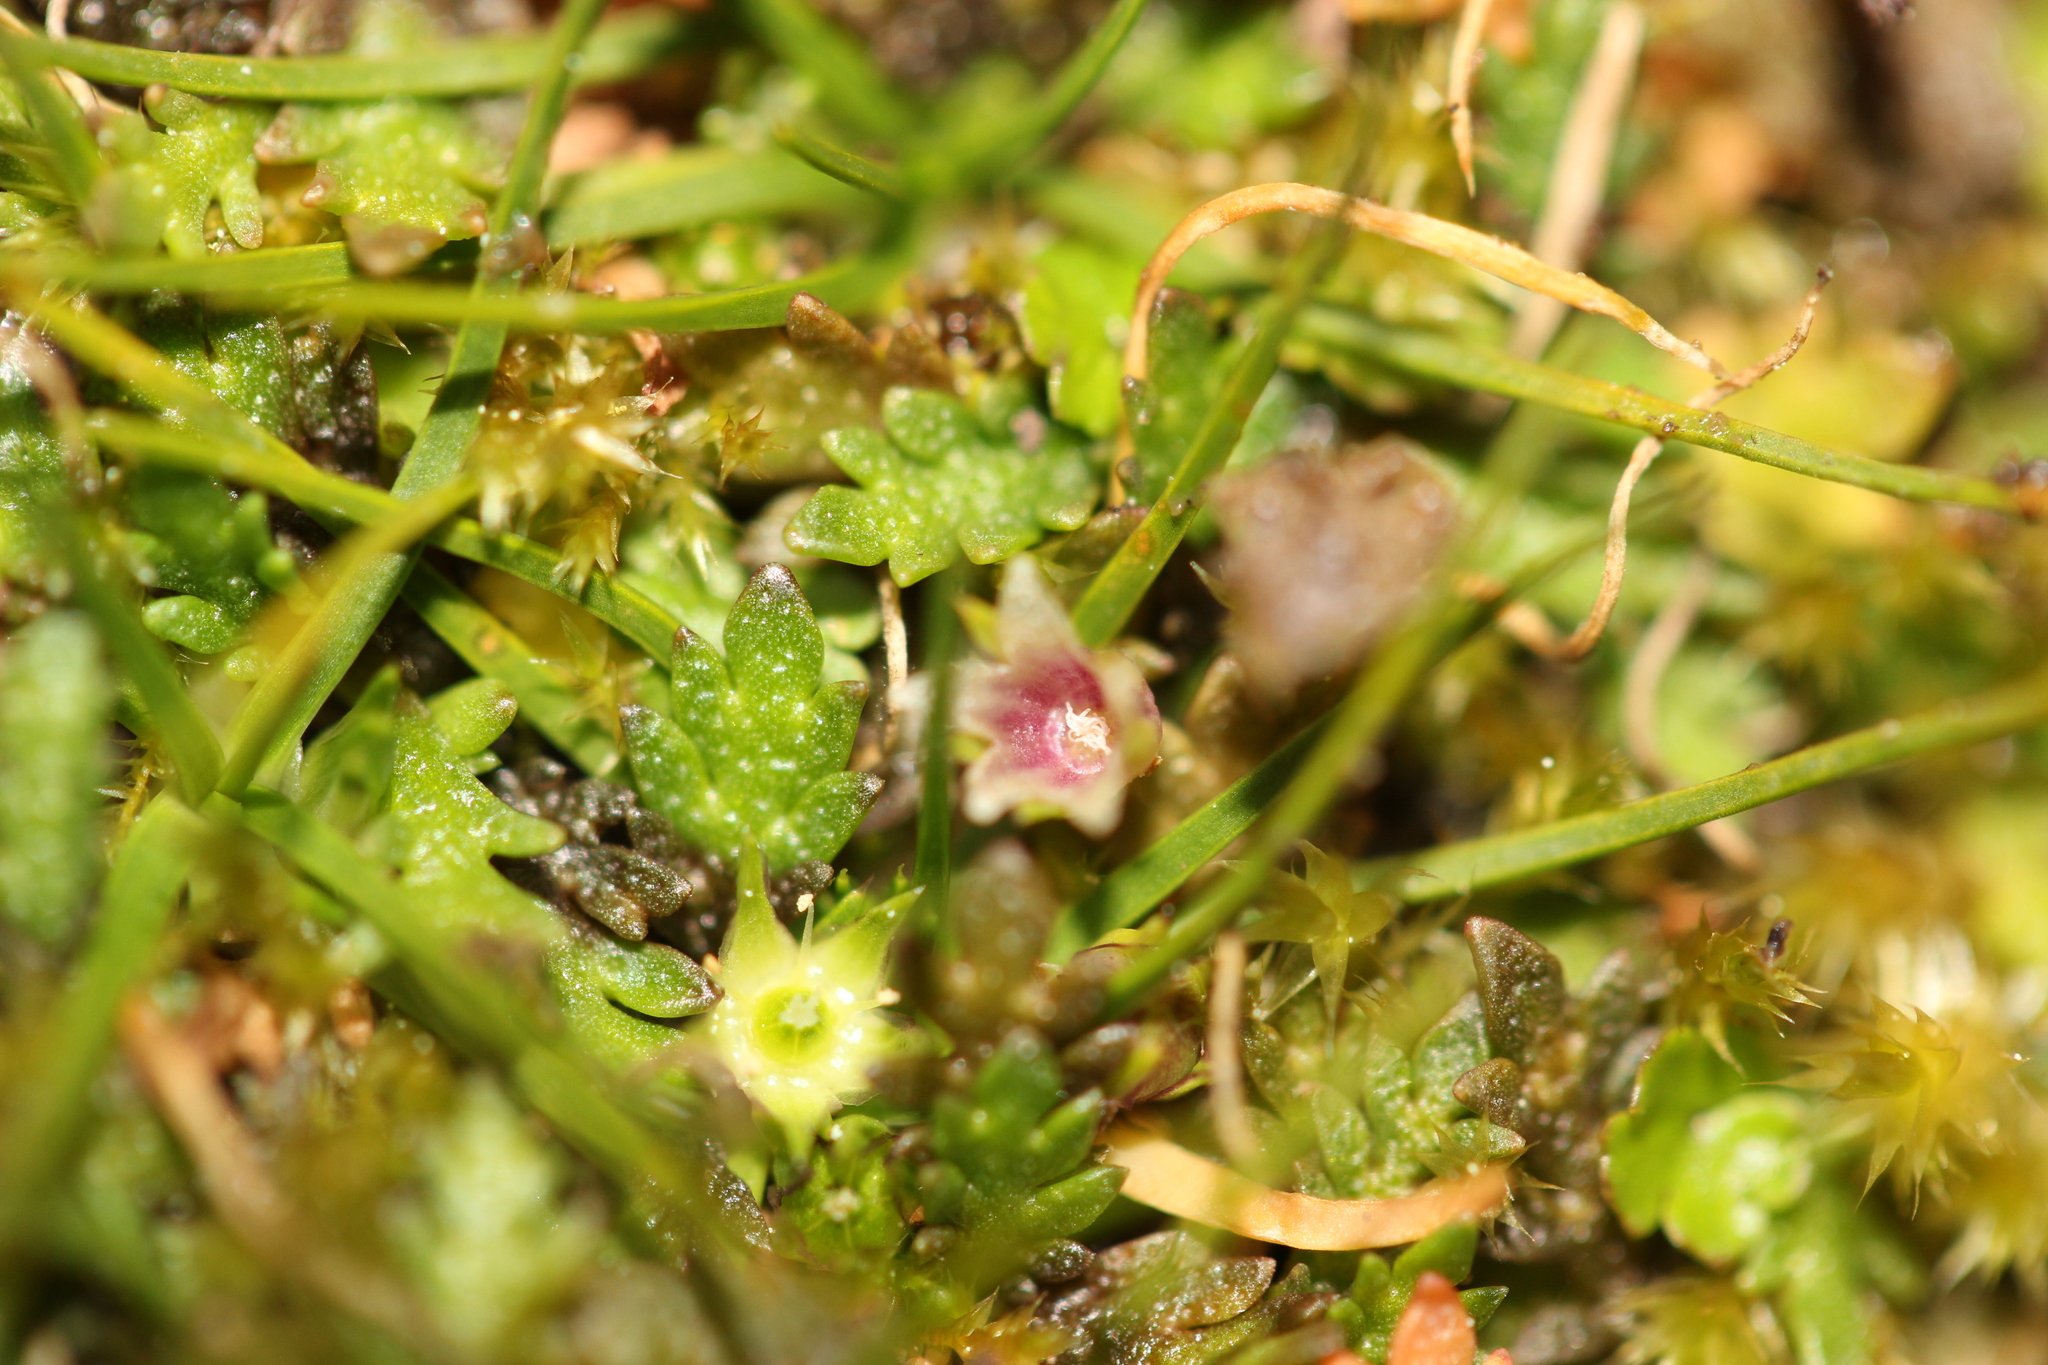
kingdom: Plantae
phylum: Tracheophyta
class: Magnoliopsida
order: Caryophyllales
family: Caryophyllaceae
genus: Colobanthus
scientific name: Colobanthus muelleri
